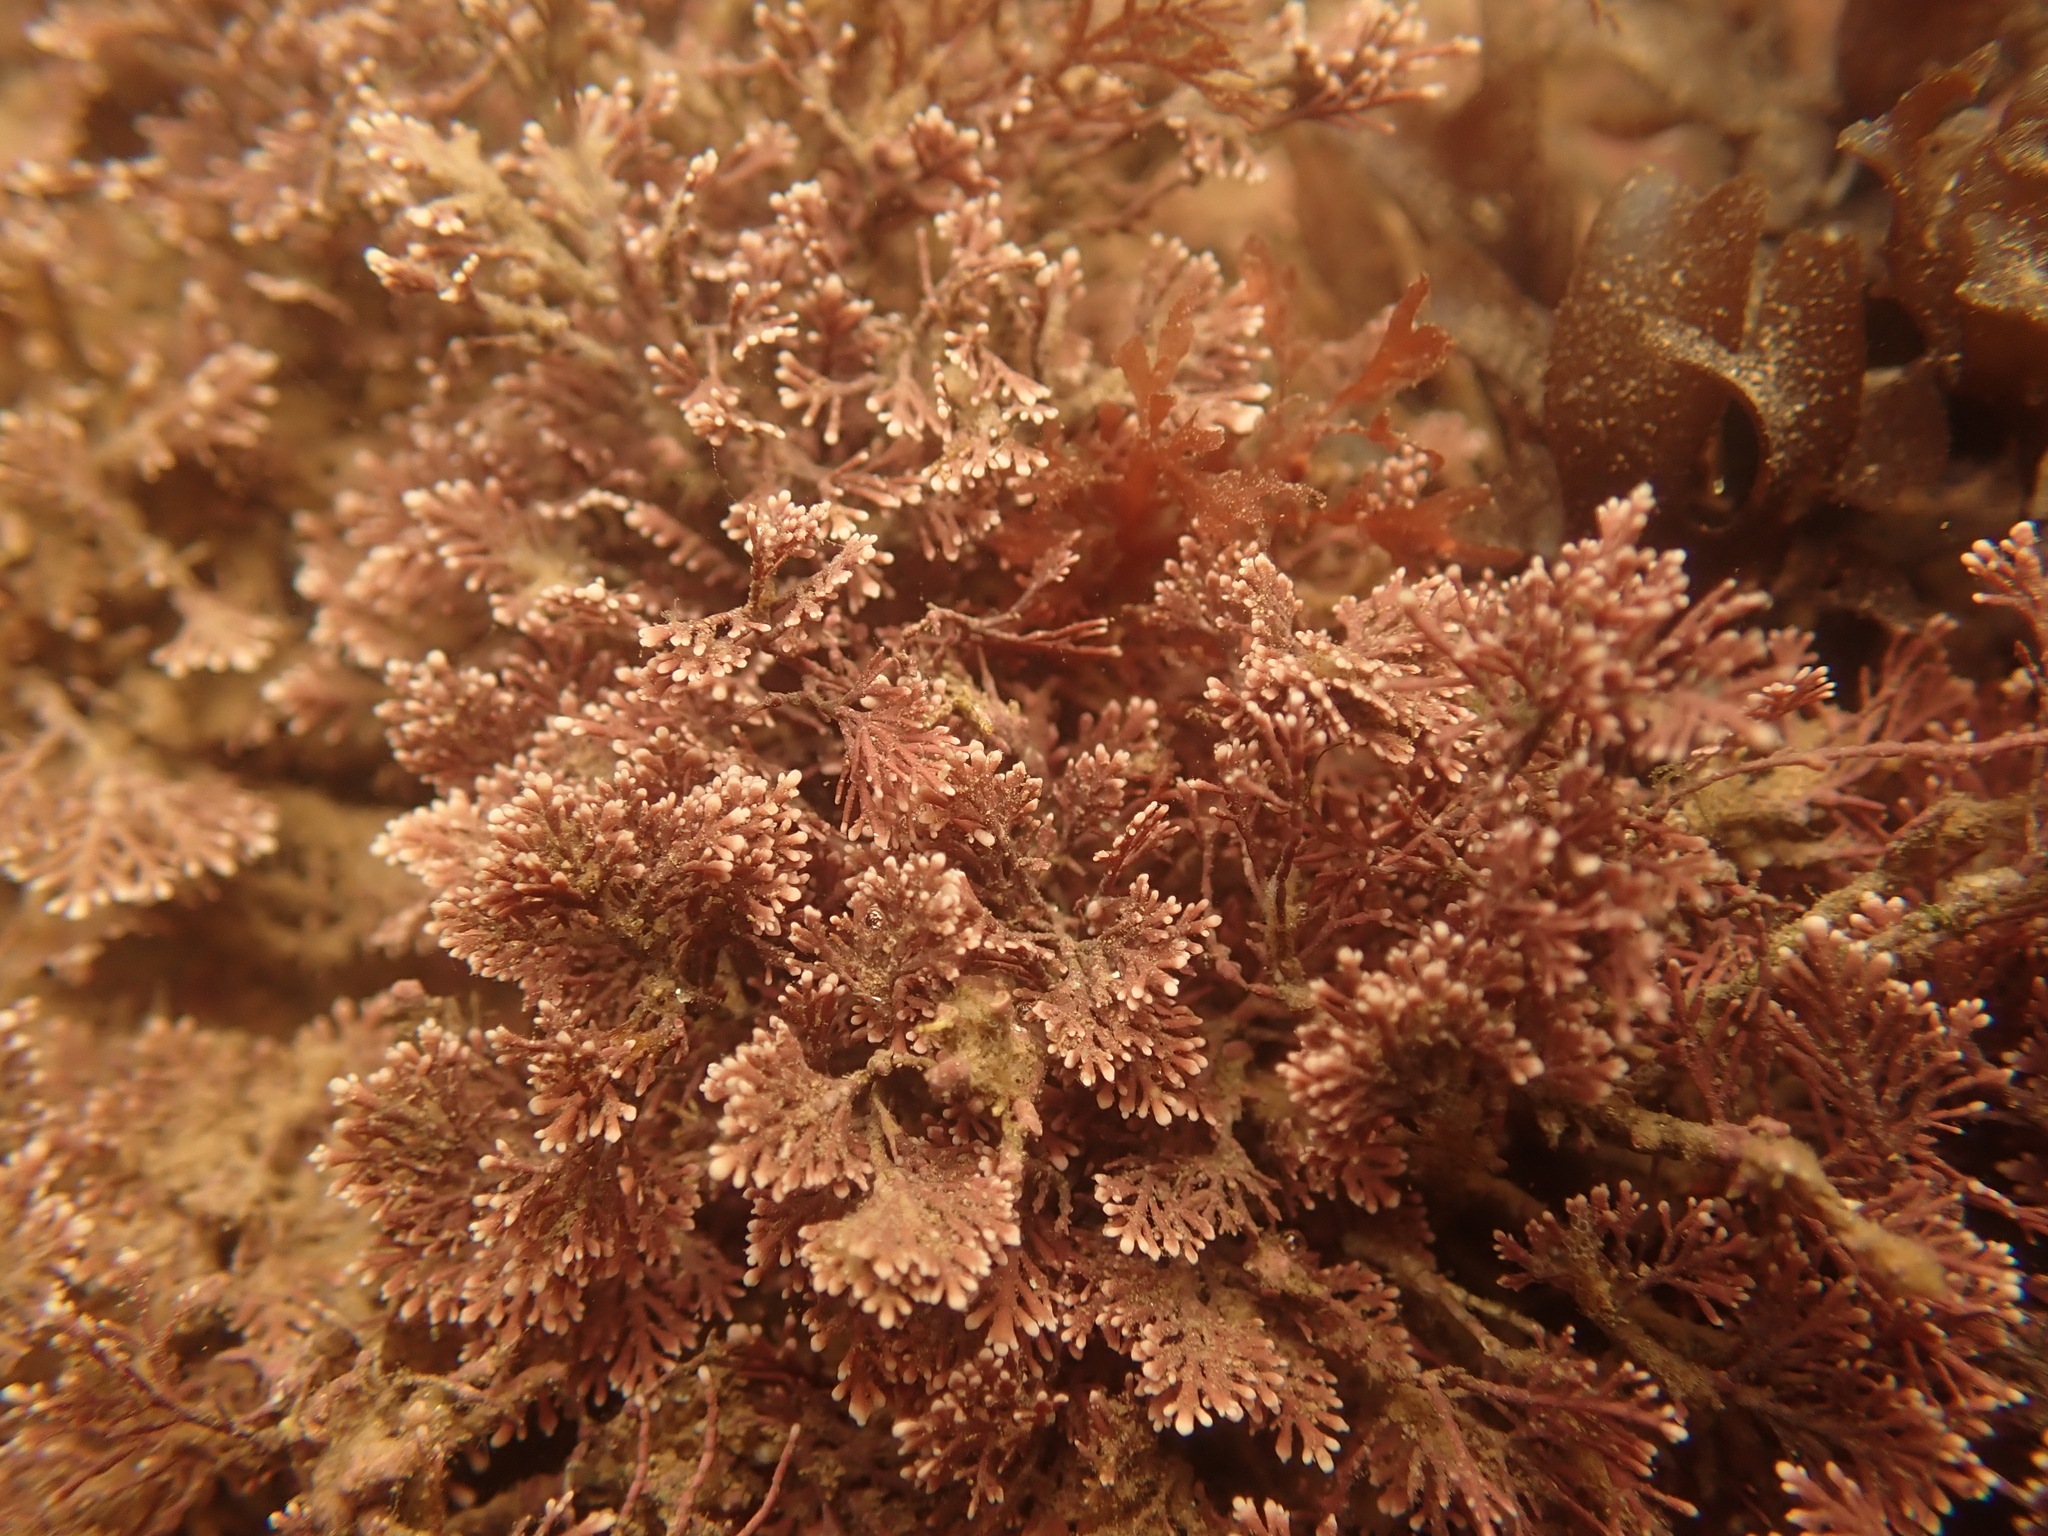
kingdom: Plantae
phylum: Rhodophyta
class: Florideophyceae
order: Corallinales
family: Corallinaceae
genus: Corallina
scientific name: Corallina officinalis
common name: Coral weed
